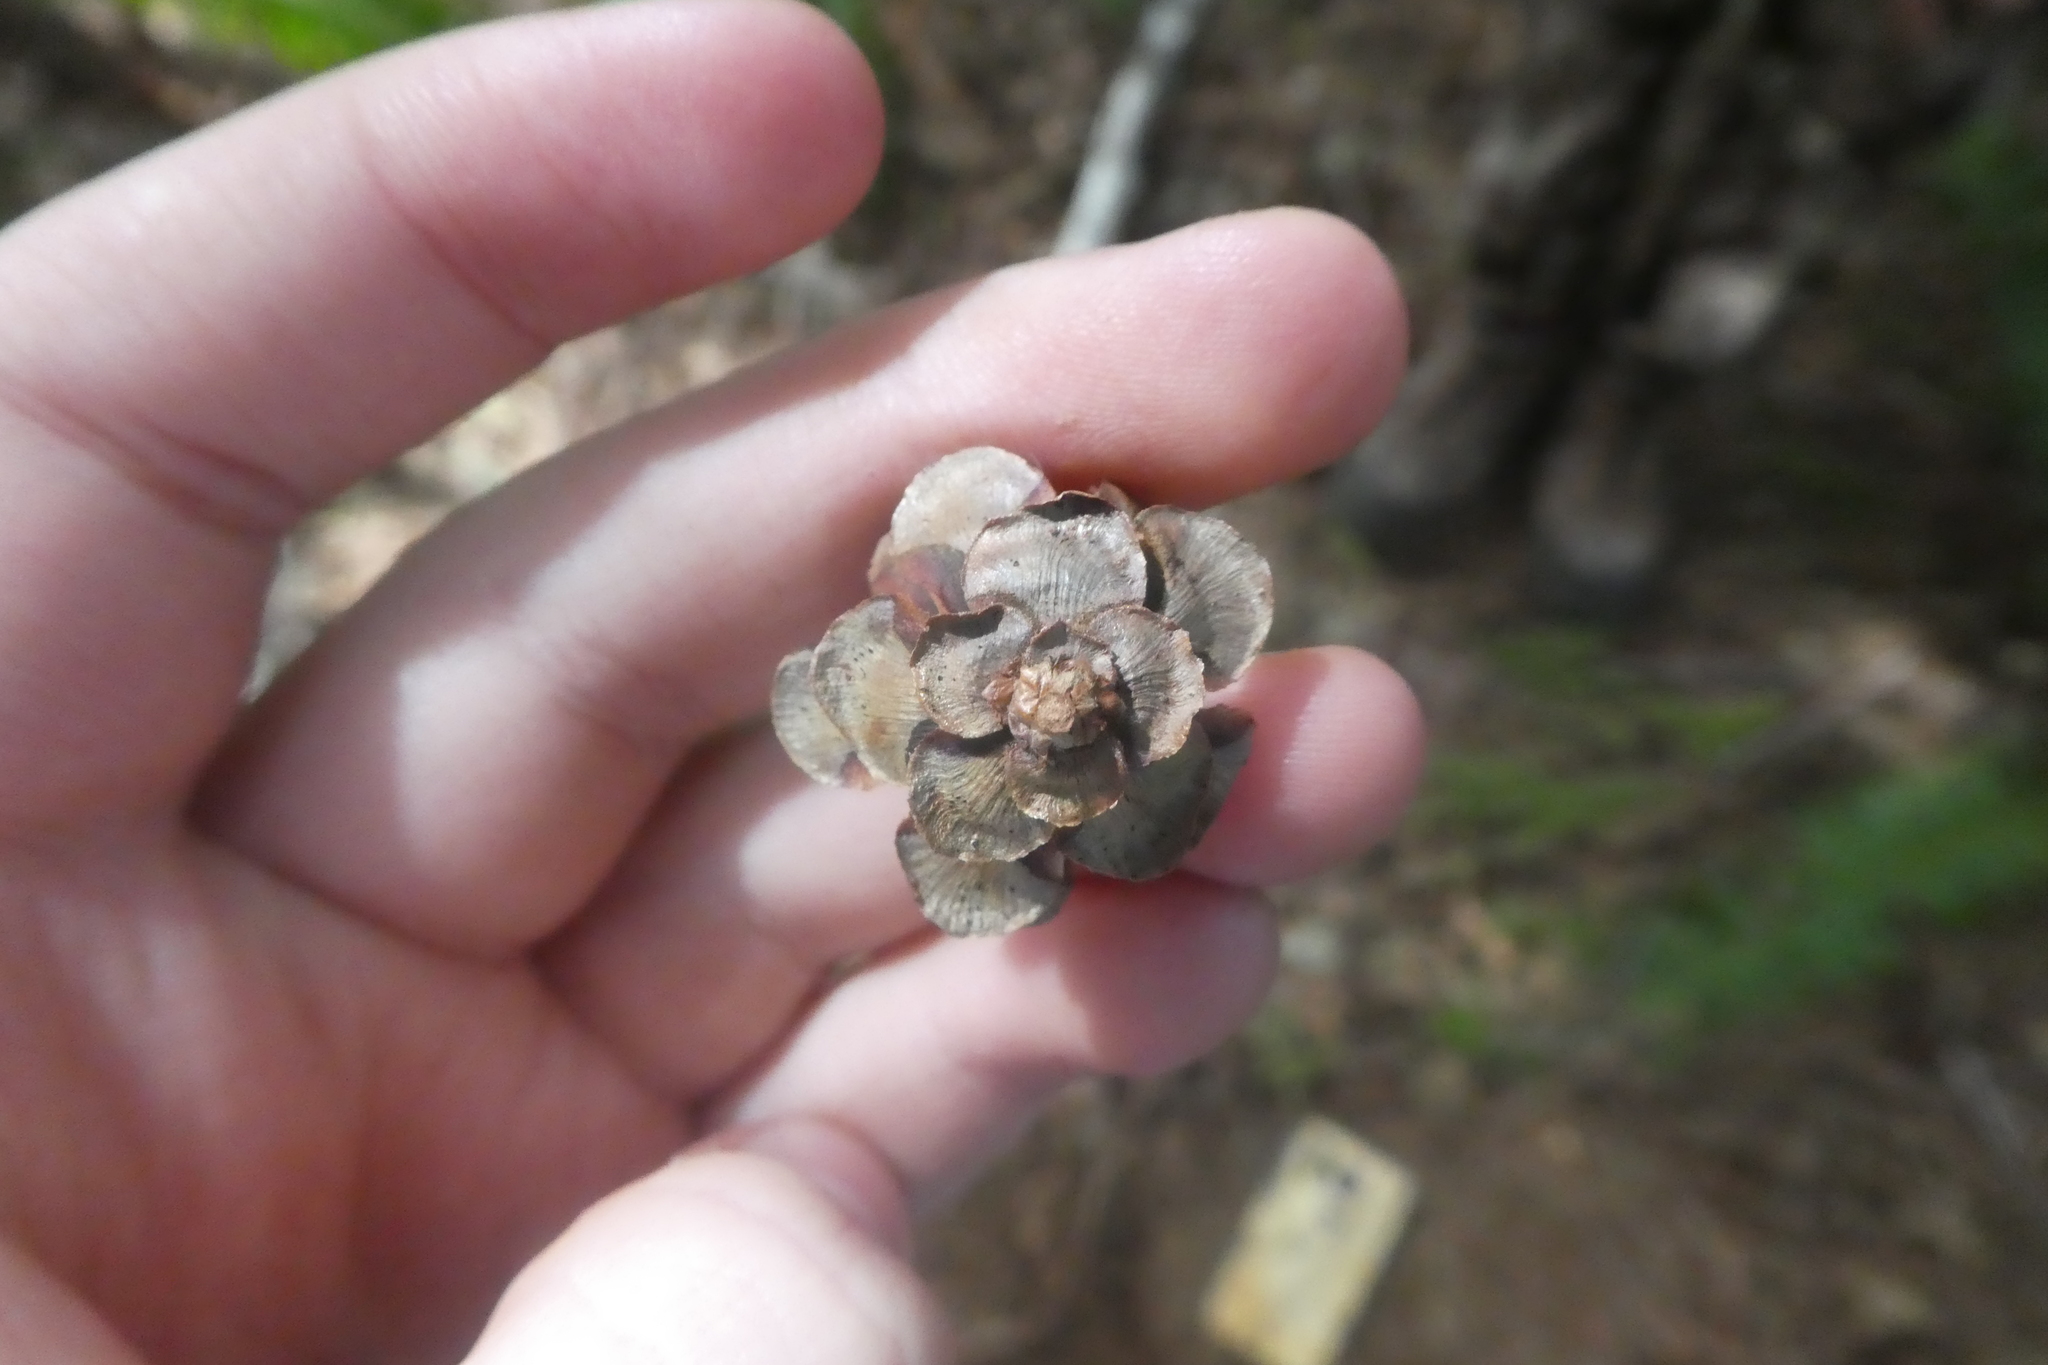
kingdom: Plantae
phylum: Tracheophyta
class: Pinopsida
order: Pinales
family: Pinaceae
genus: Tsuga
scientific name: Tsuga heterophylla
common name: Western hemlock
